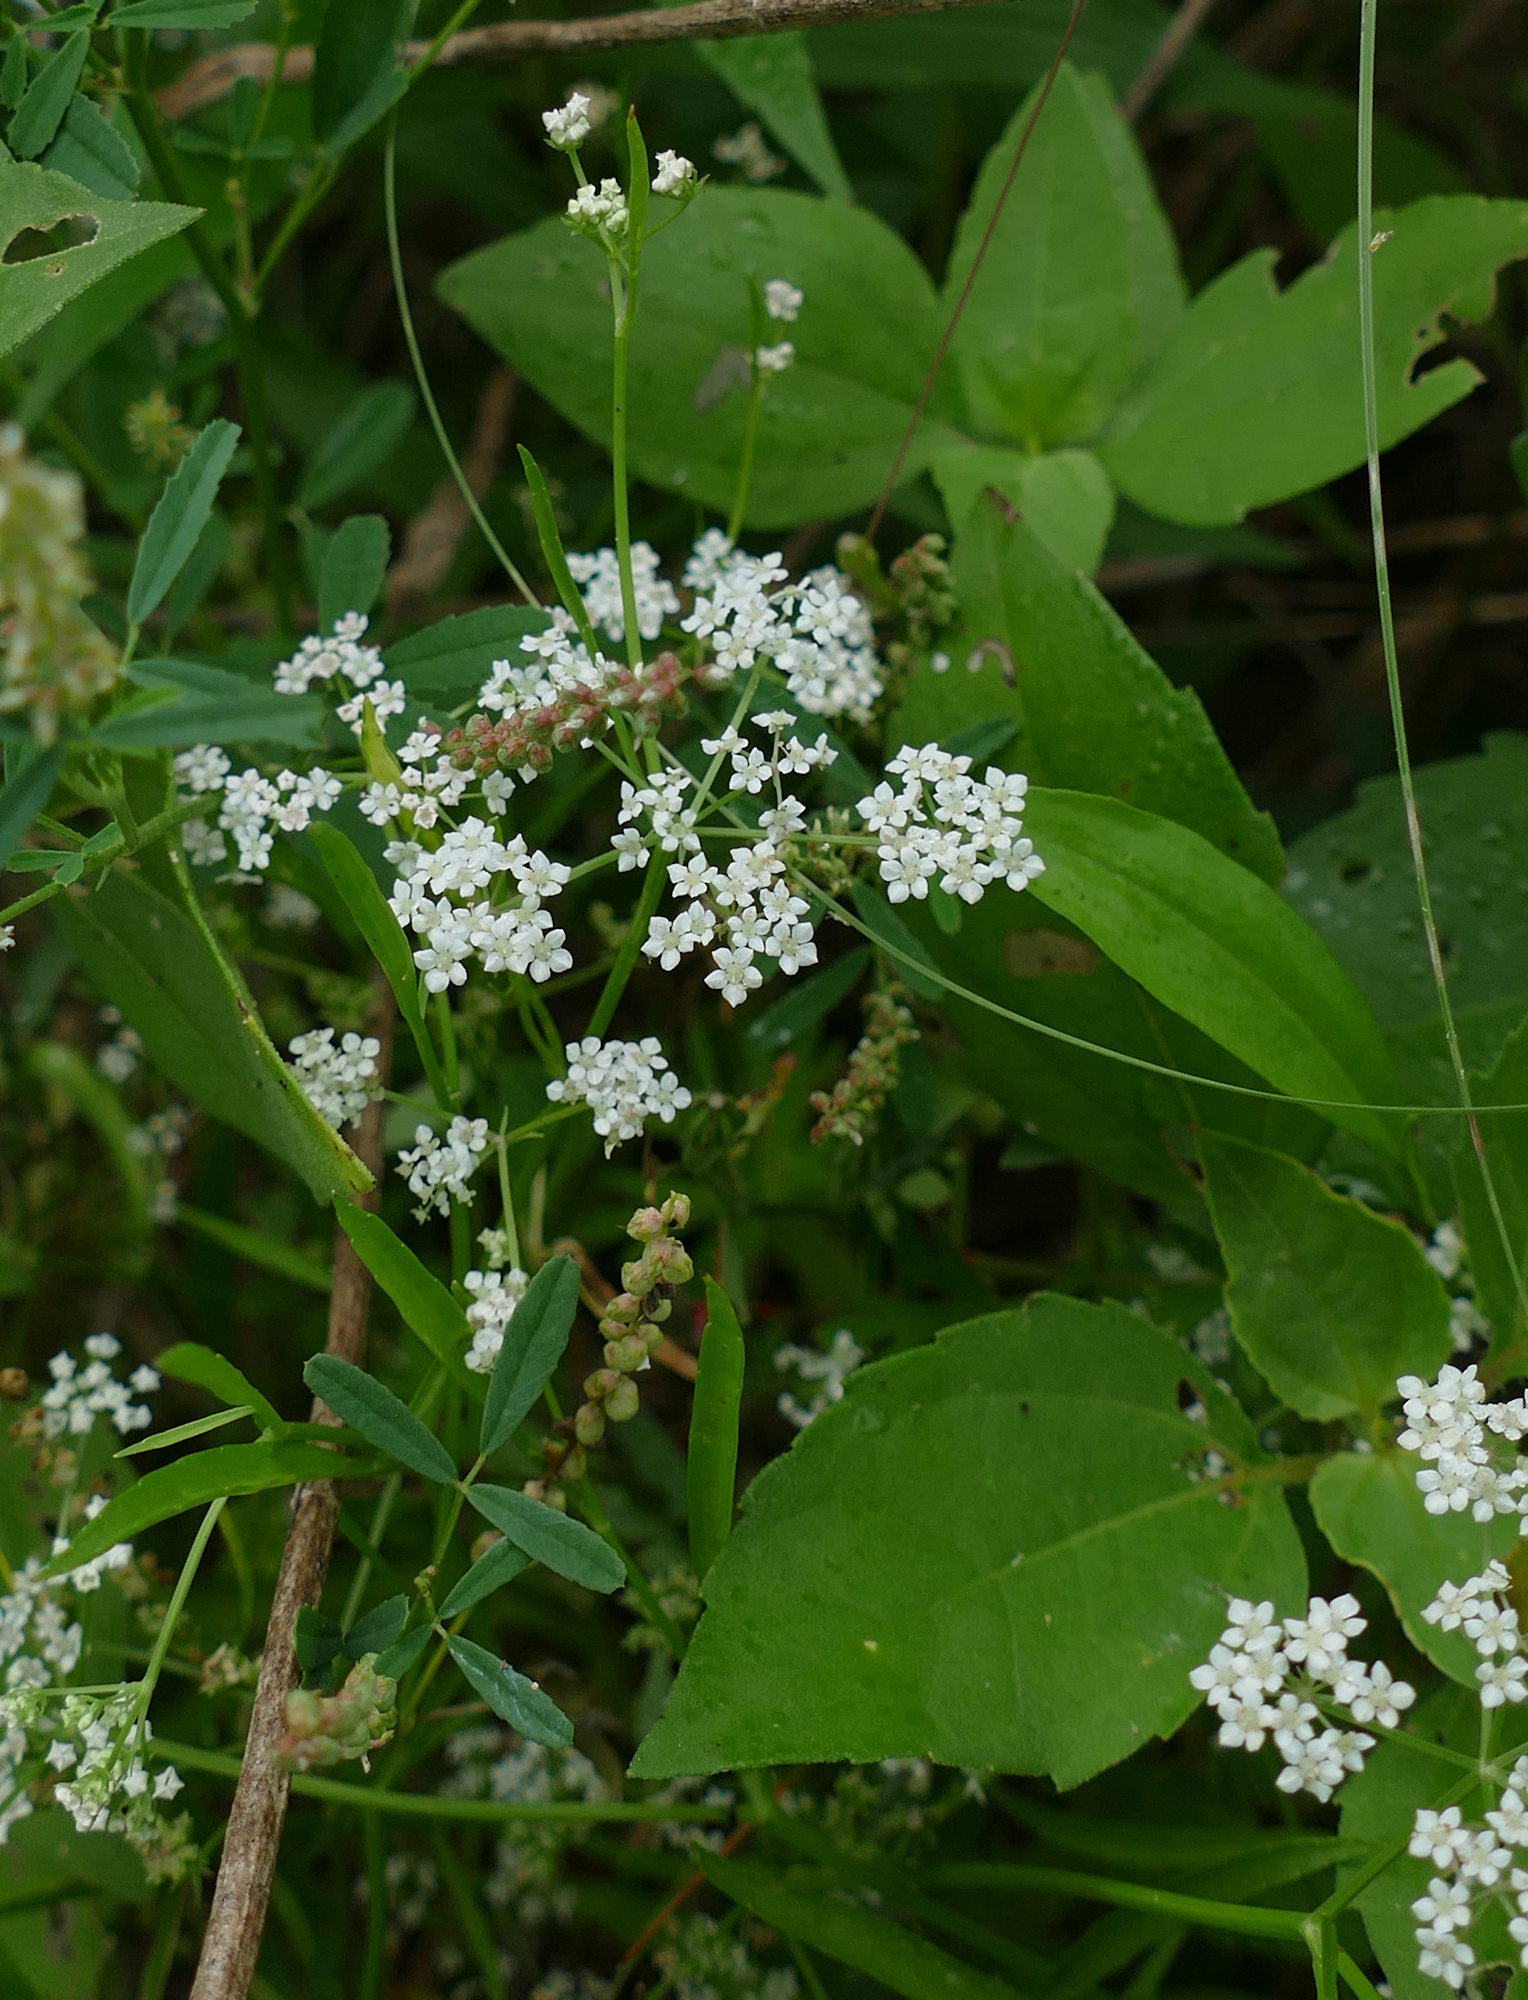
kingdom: Plantae
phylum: Tracheophyta
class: Magnoliopsida
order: Apiales
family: Apiaceae
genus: Limnosciadium
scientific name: Limnosciadium pinnatum
